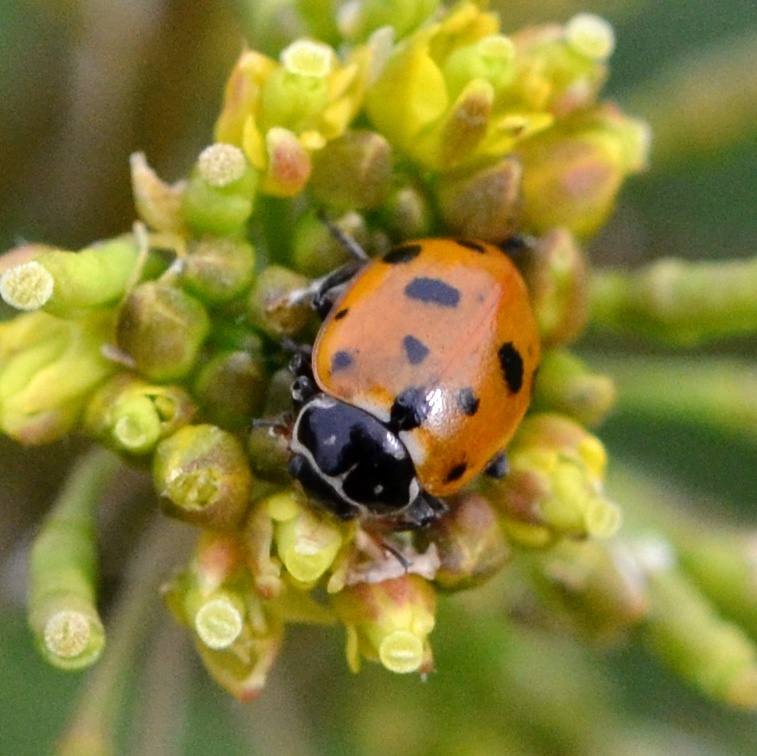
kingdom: Animalia
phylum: Arthropoda
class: Insecta
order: Coleoptera
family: Coccinellidae
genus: Hippodamia
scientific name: Hippodamia variegata
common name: Ladybird beetle
